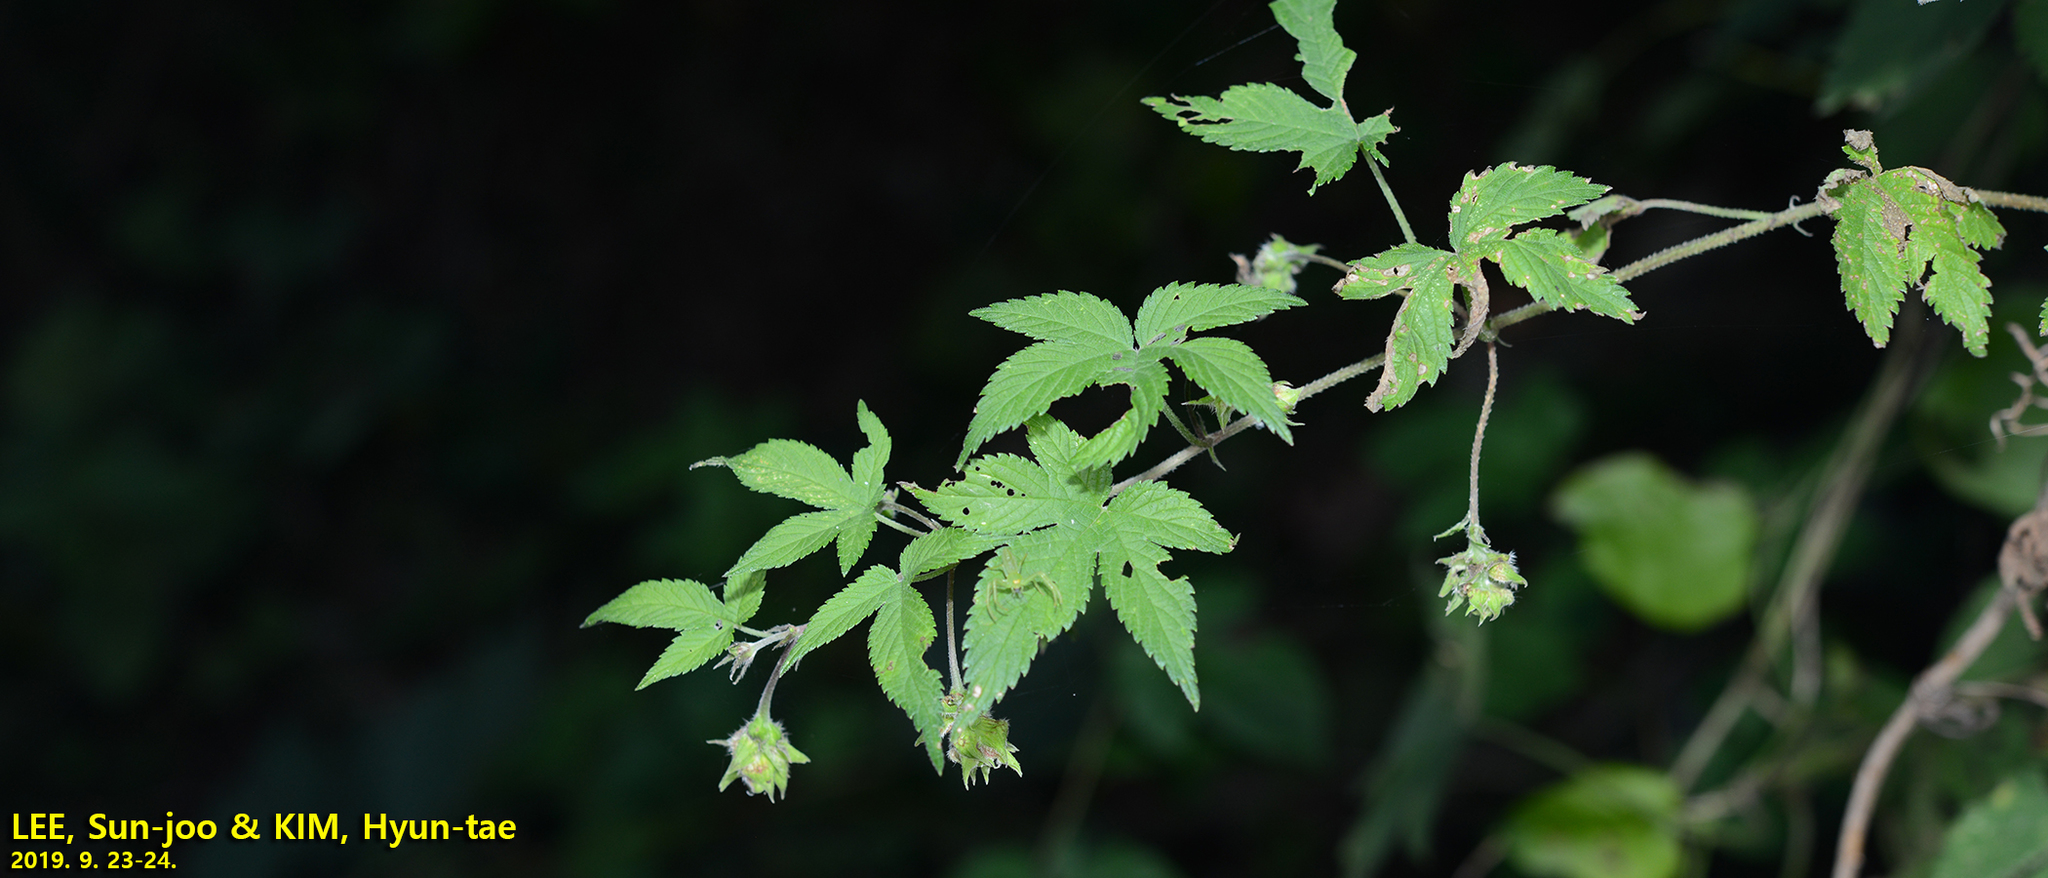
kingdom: Plantae
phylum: Tracheophyta
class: Magnoliopsida
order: Rosales
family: Cannabaceae
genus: Humulus
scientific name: Humulus scandens
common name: Japanese hop
